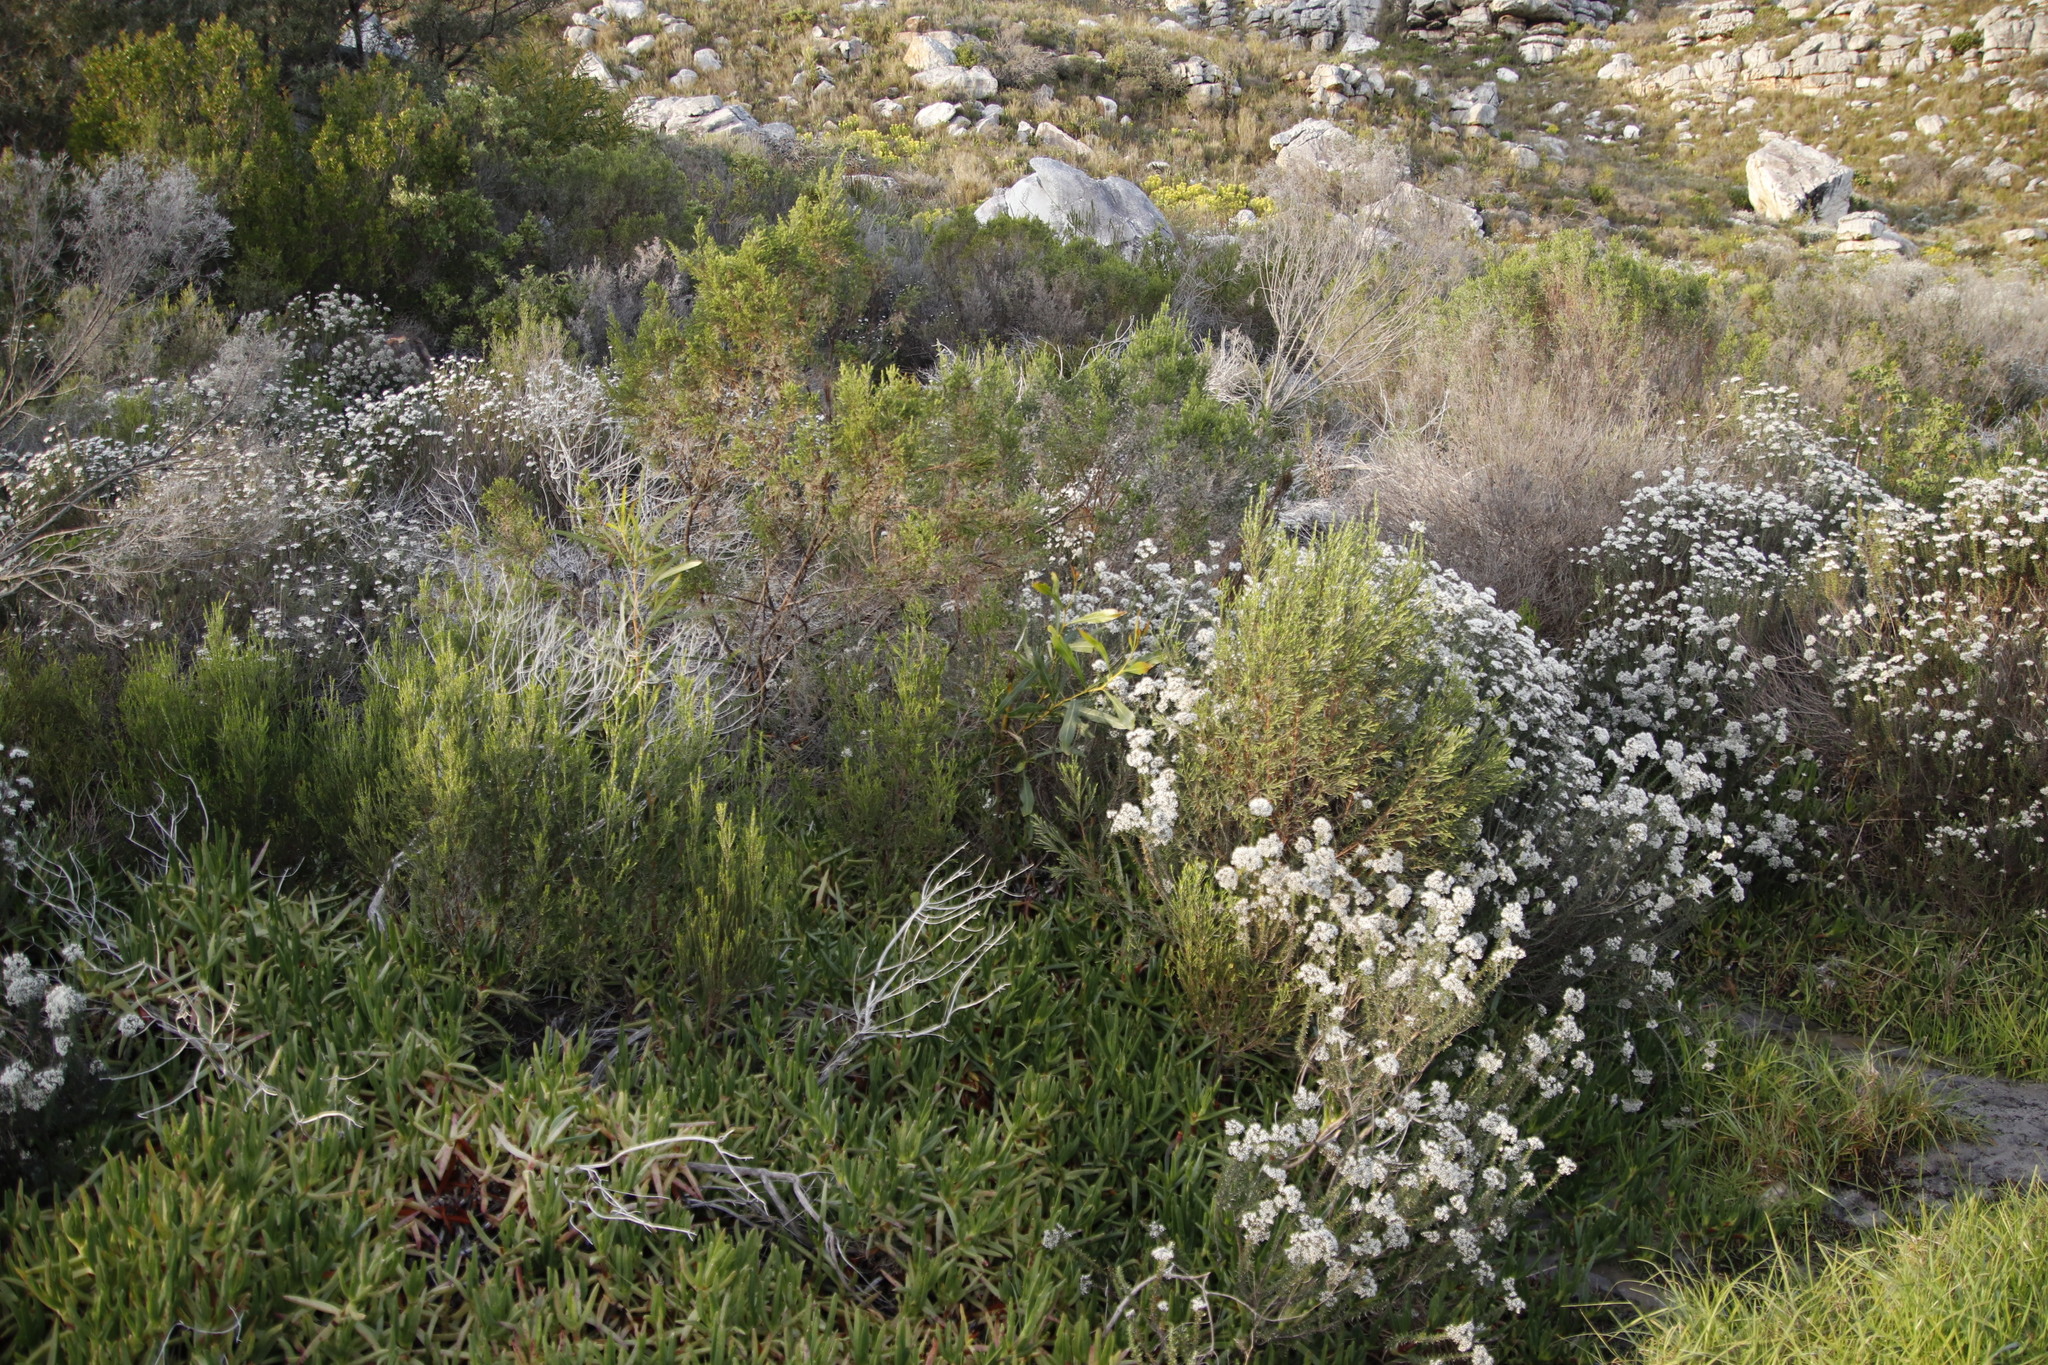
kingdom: Plantae
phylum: Tracheophyta
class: Magnoliopsida
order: Fabales
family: Fabaceae
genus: Acacia
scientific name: Acacia saligna
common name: Orange wattle
